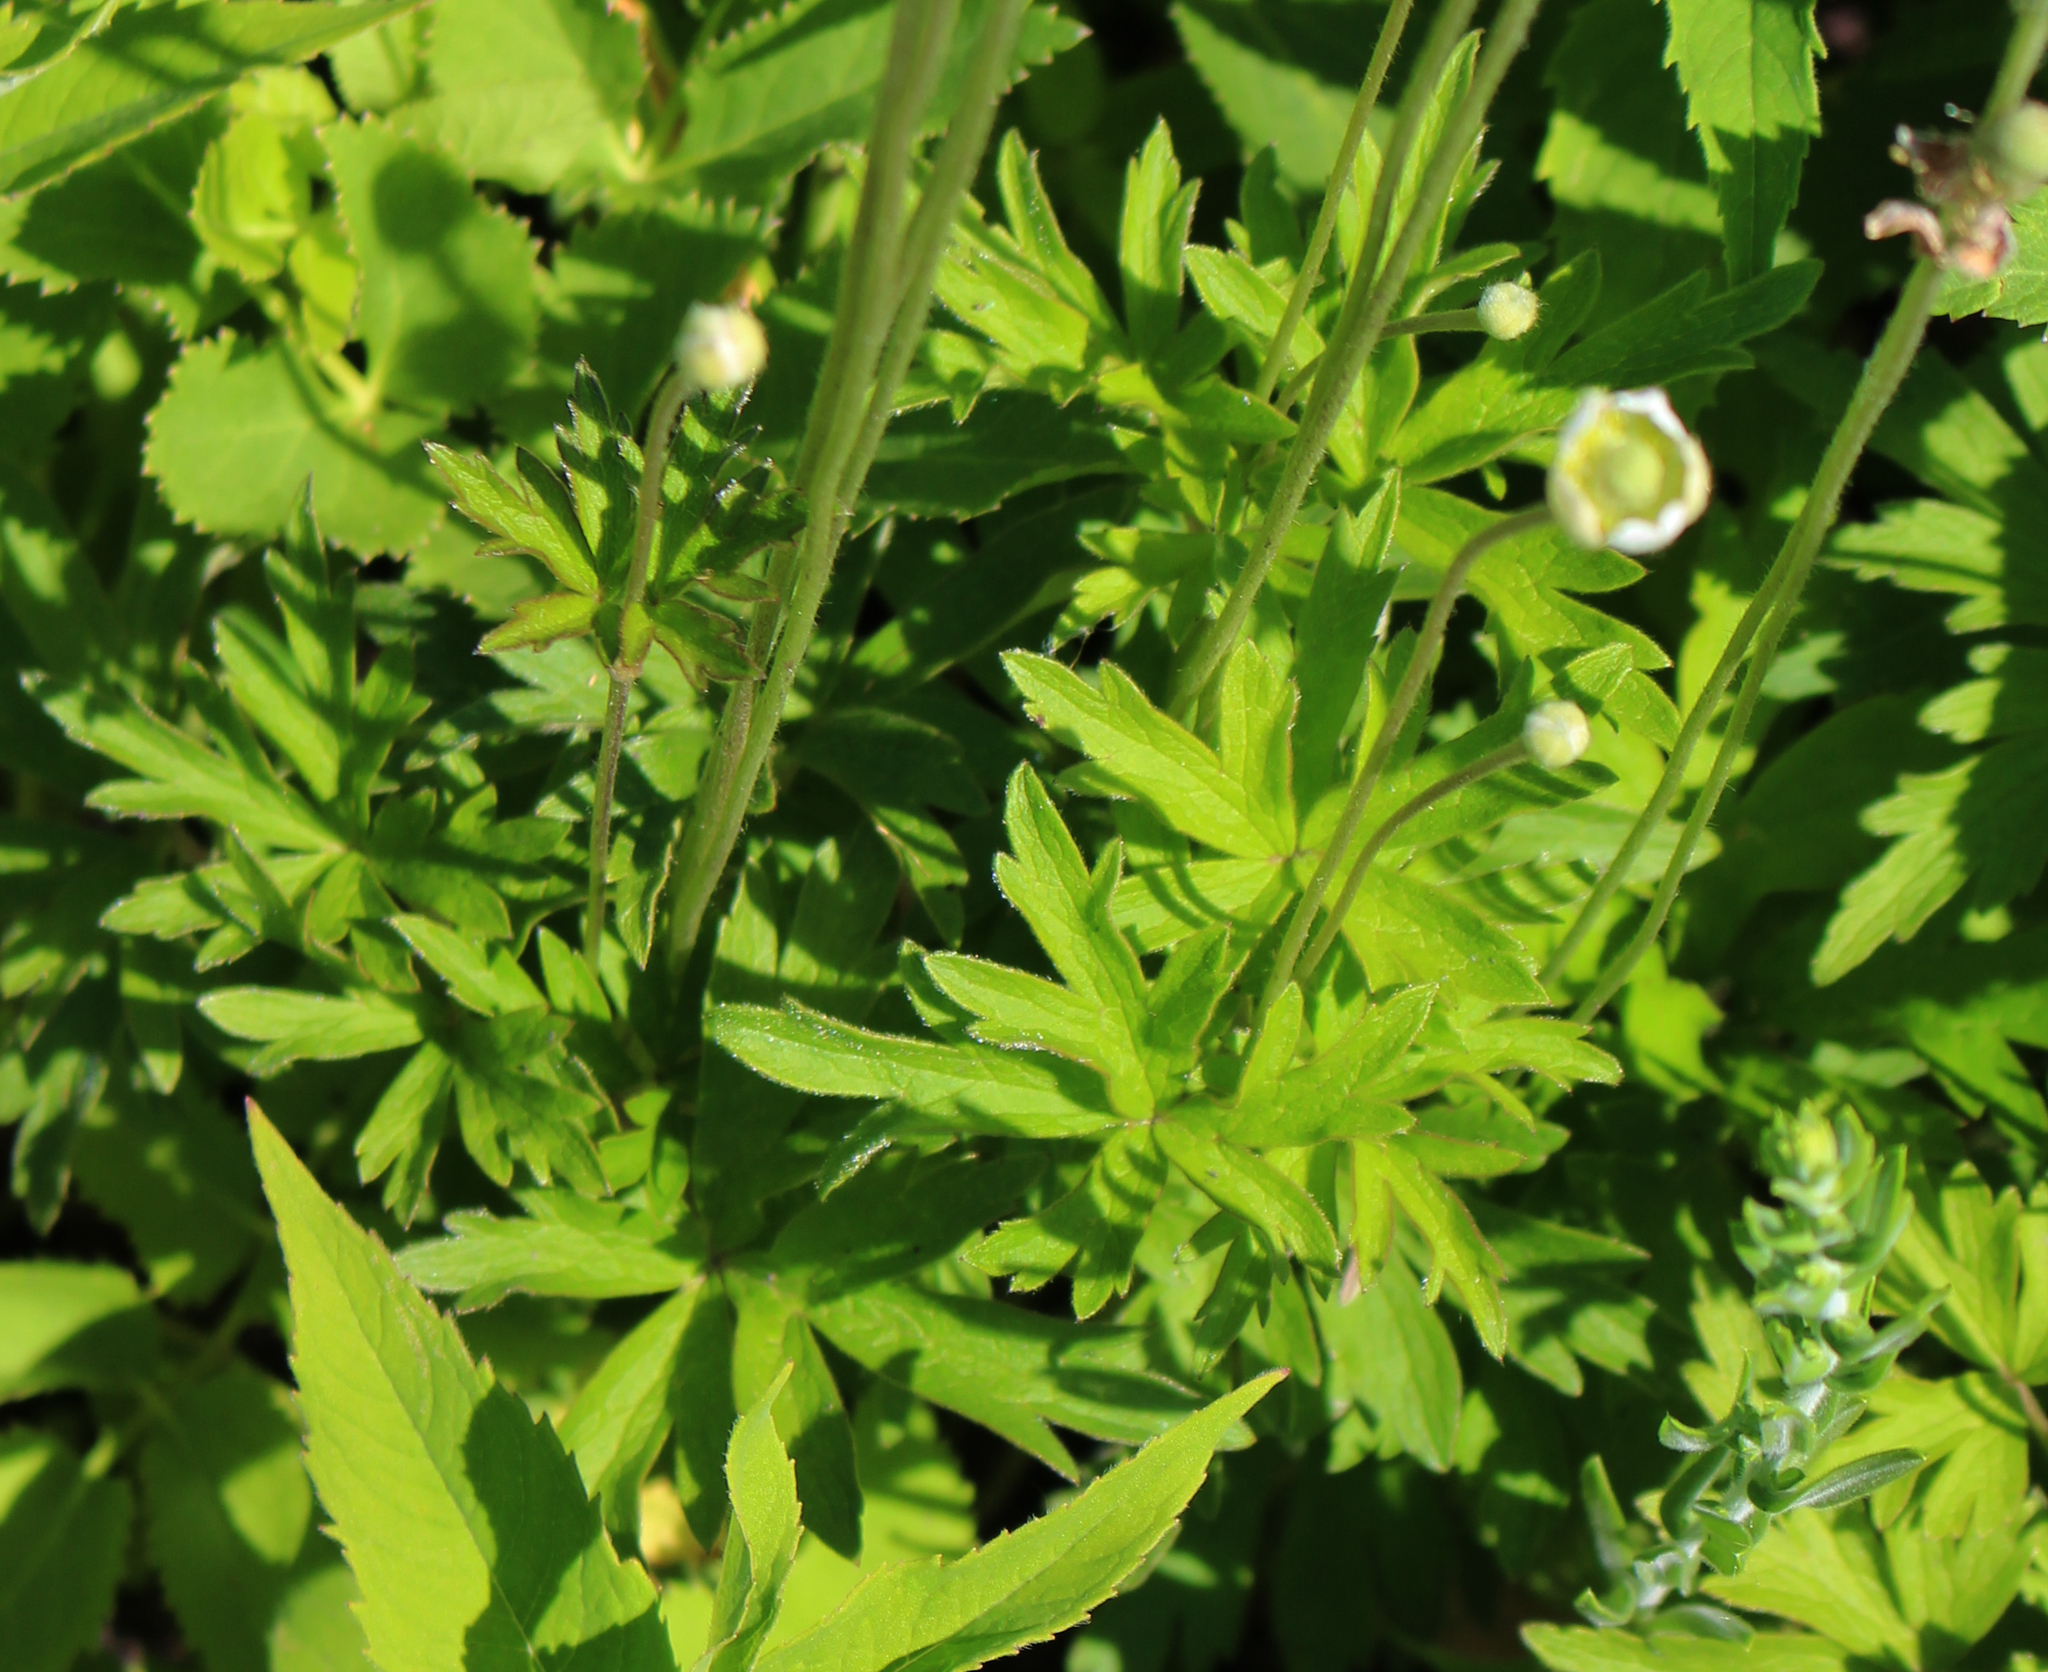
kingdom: Plantae
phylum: Tracheophyta
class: Magnoliopsida
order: Ranunculales
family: Ranunculaceae
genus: Anemone
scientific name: Anemone cylindrica
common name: Candle anemone
